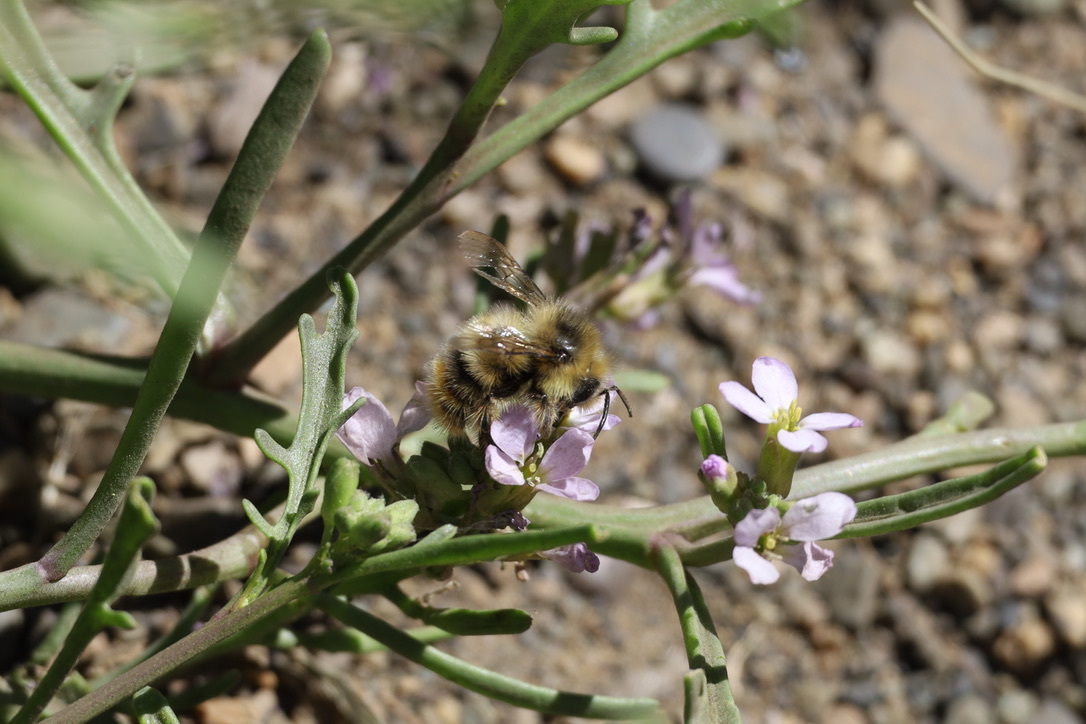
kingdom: Animalia
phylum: Arthropoda
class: Insecta
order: Hymenoptera
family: Apidae
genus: Bombus
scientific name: Bombus mixtus
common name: Fuzzy-horned bumble bee
